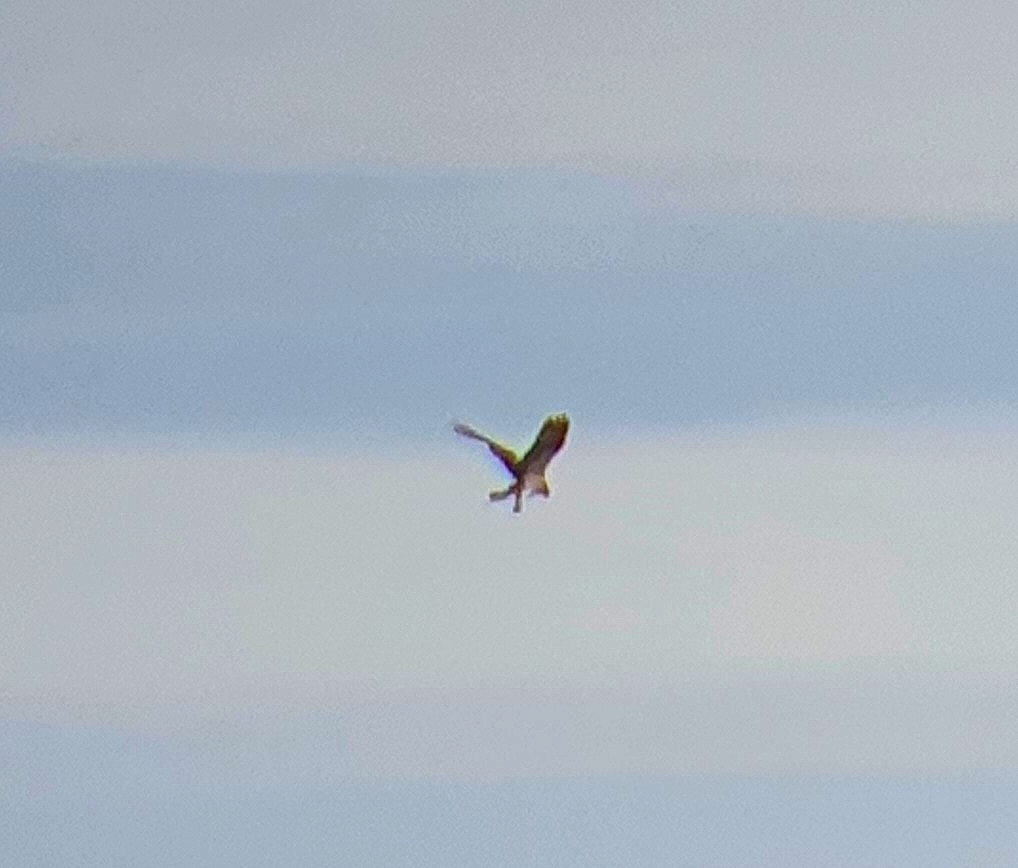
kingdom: Animalia
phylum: Chordata
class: Aves
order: Accipitriformes
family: Pandionidae
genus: Pandion
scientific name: Pandion haliaetus
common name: Osprey
